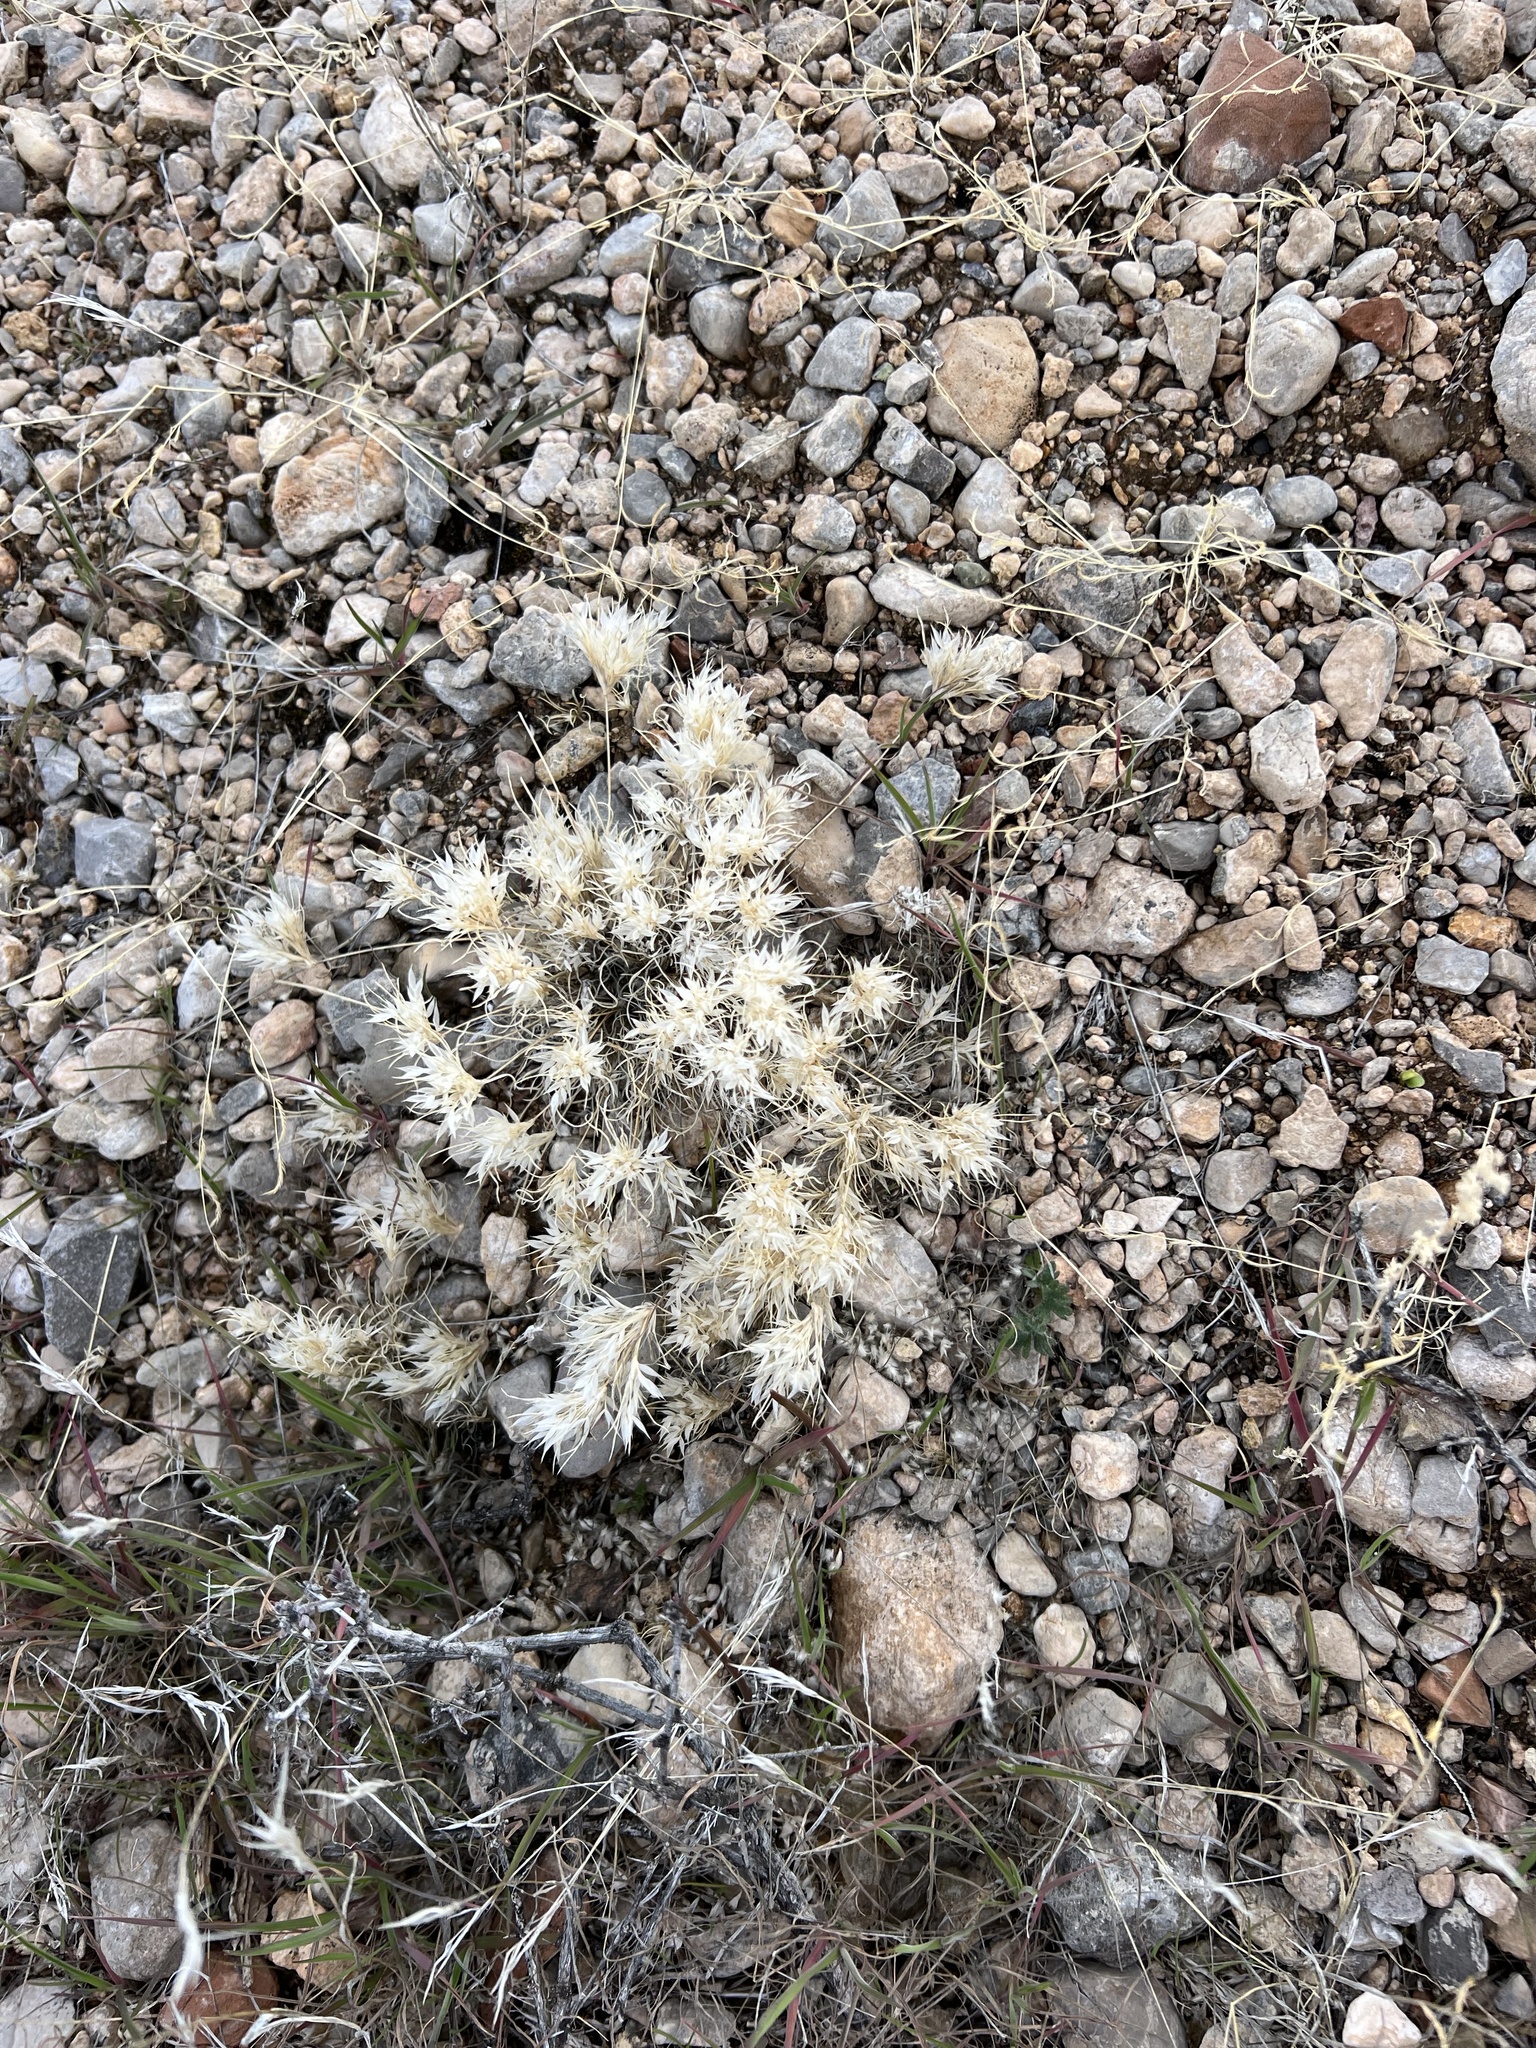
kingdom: Plantae
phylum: Tracheophyta
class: Liliopsida
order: Poales
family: Poaceae
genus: Dasyochloa
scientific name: Dasyochloa pulchella
